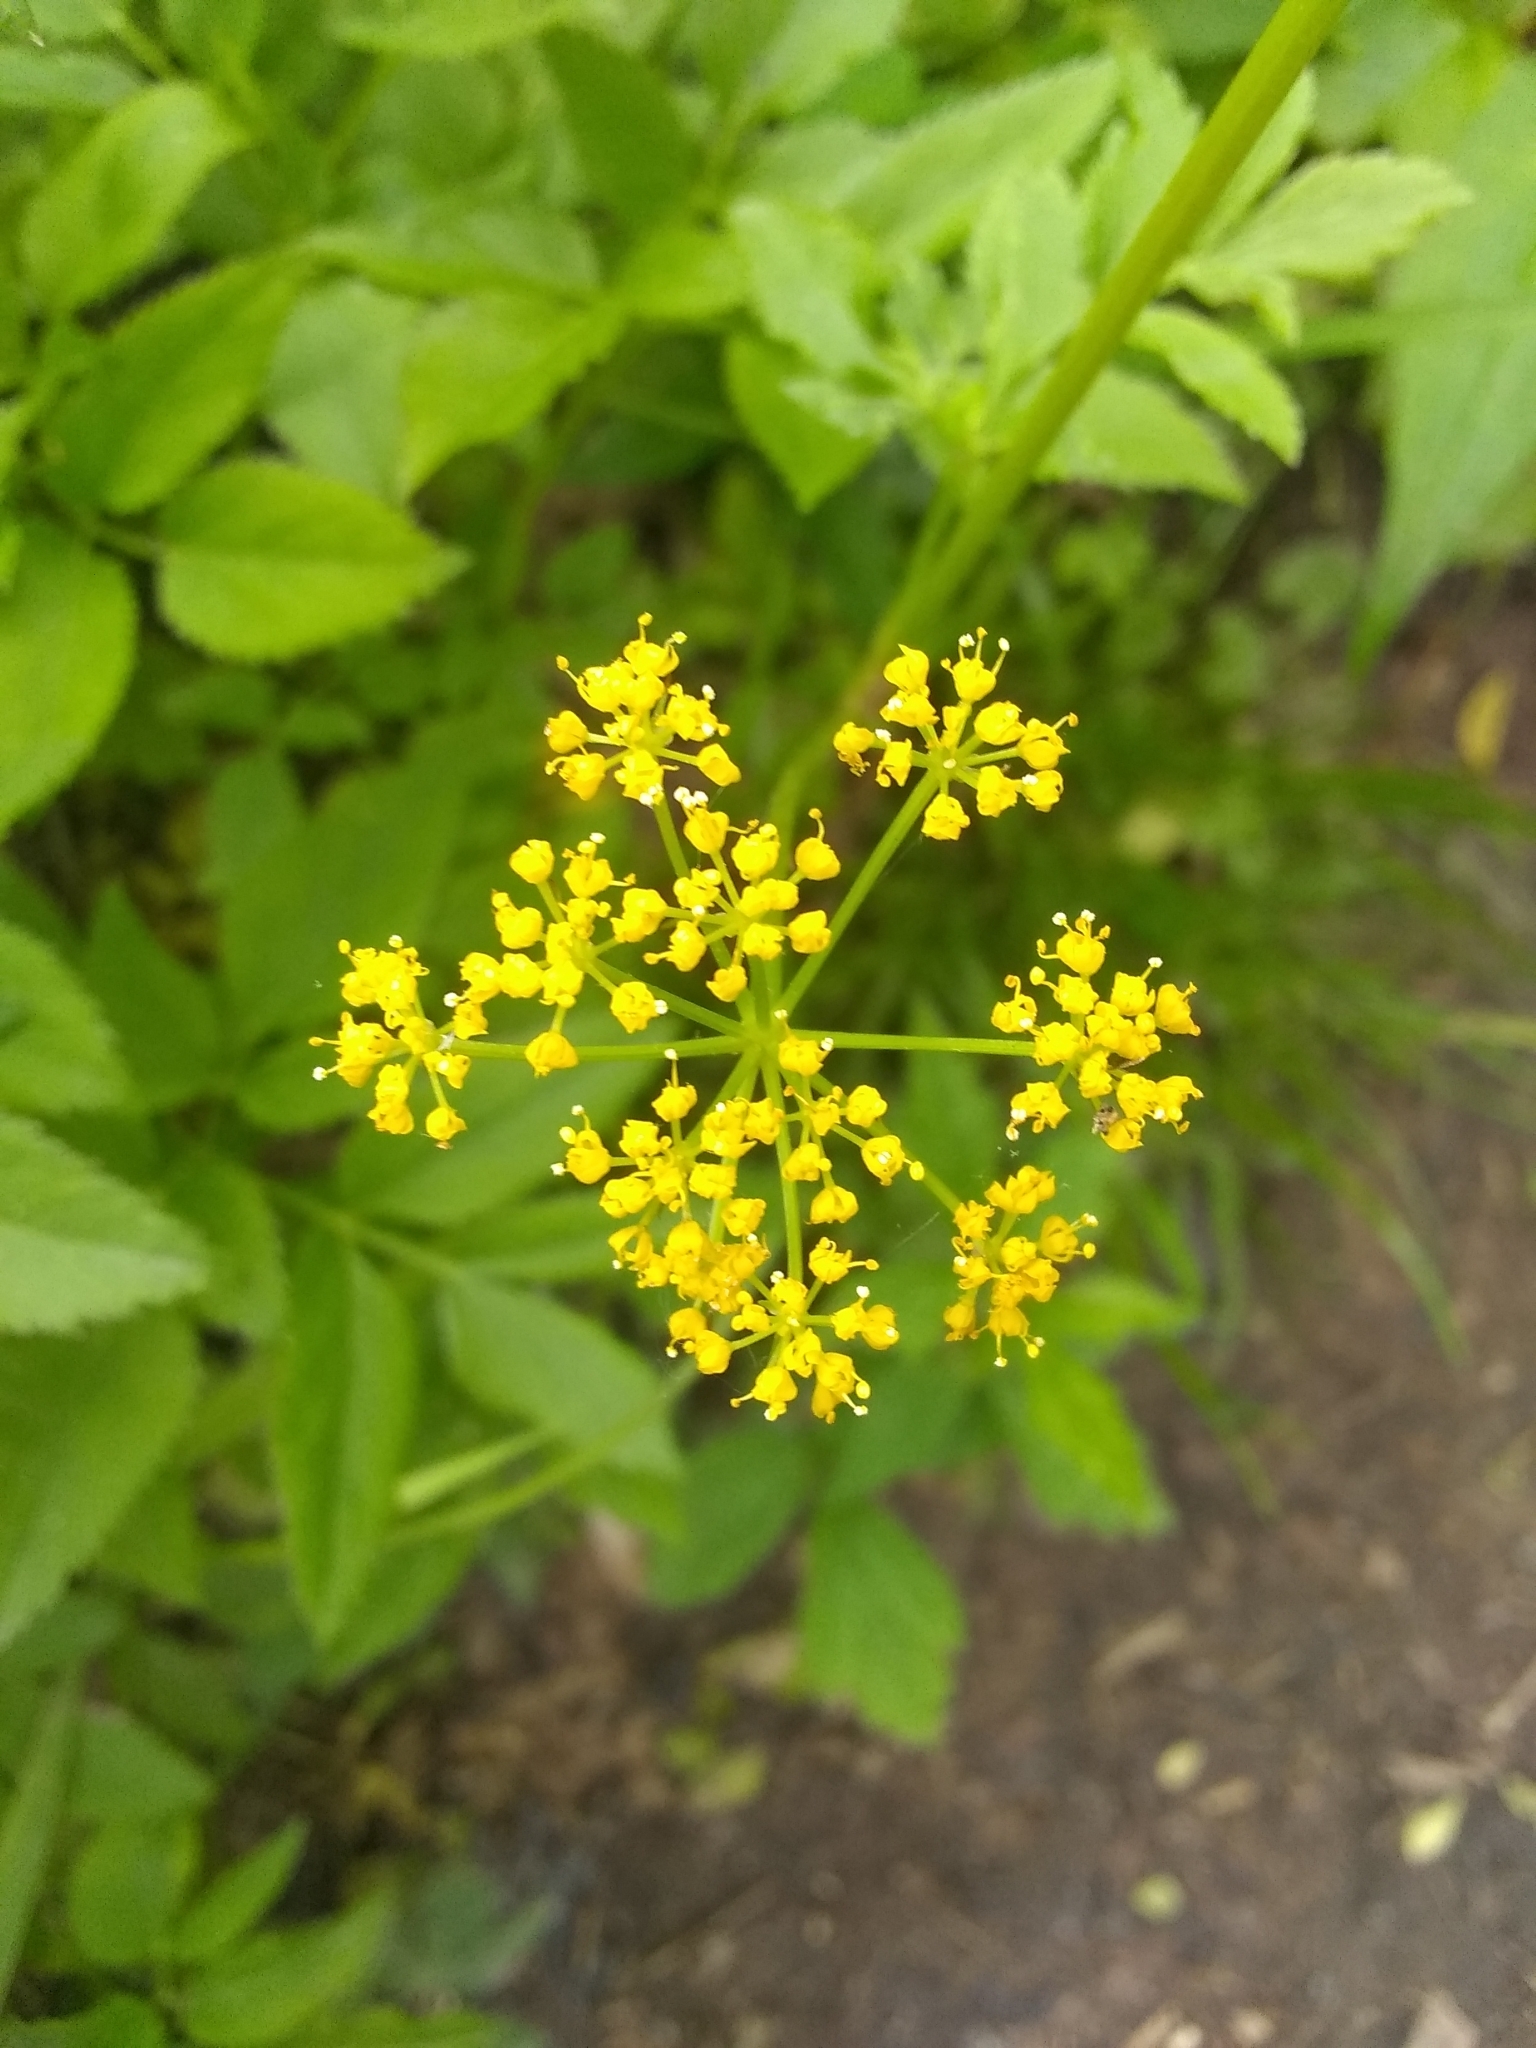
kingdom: Plantae
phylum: Tracheophyta
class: Magnoliopsida
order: Apiales
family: Apiaceae
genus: Zizia
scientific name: Zizia aurea
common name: Golden alexanders
